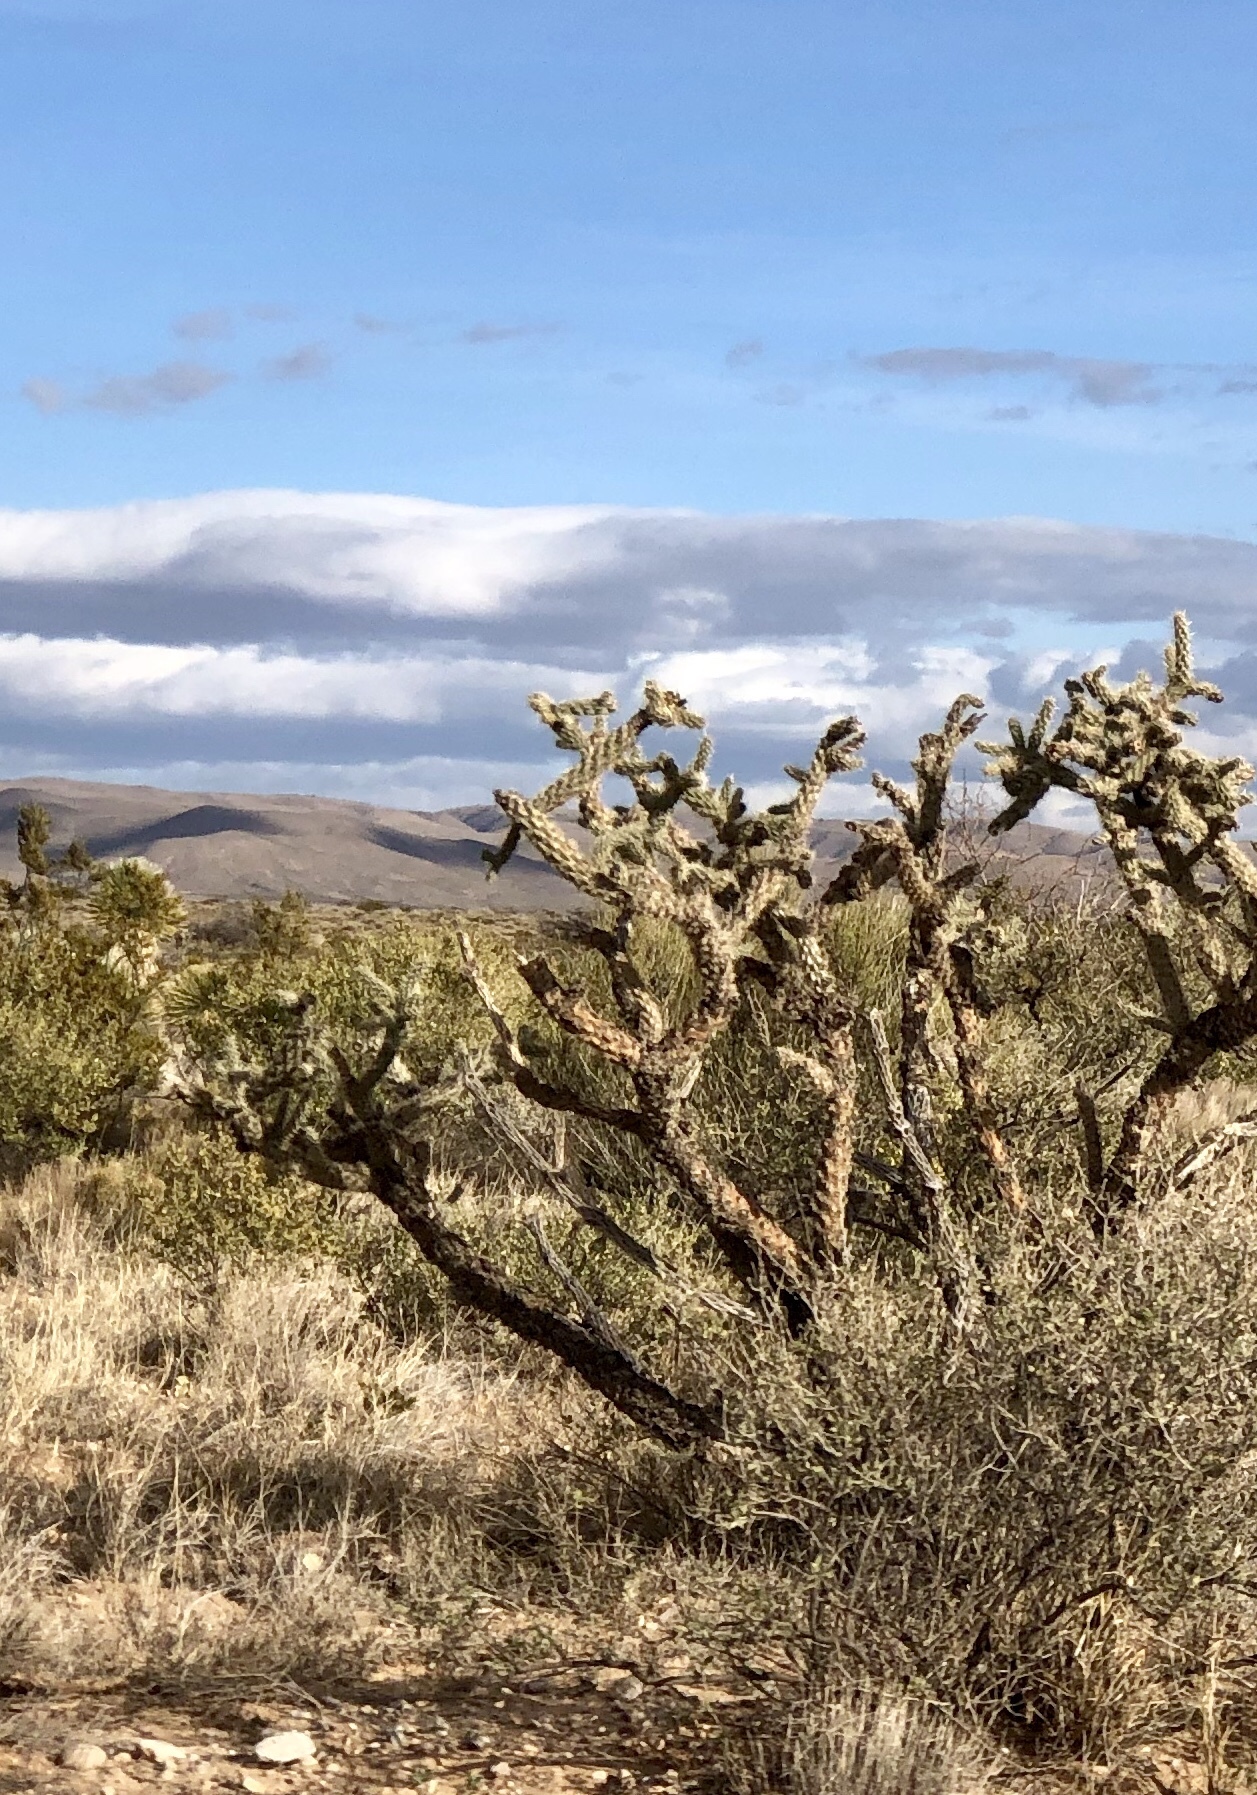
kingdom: Plantae
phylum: Tracheophyta
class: Magnoliopsida
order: Caryophyllales
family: Cactaceae
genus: Cylindropuntia
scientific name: Cylindropuntia imbricata
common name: Candelabrum cactus
